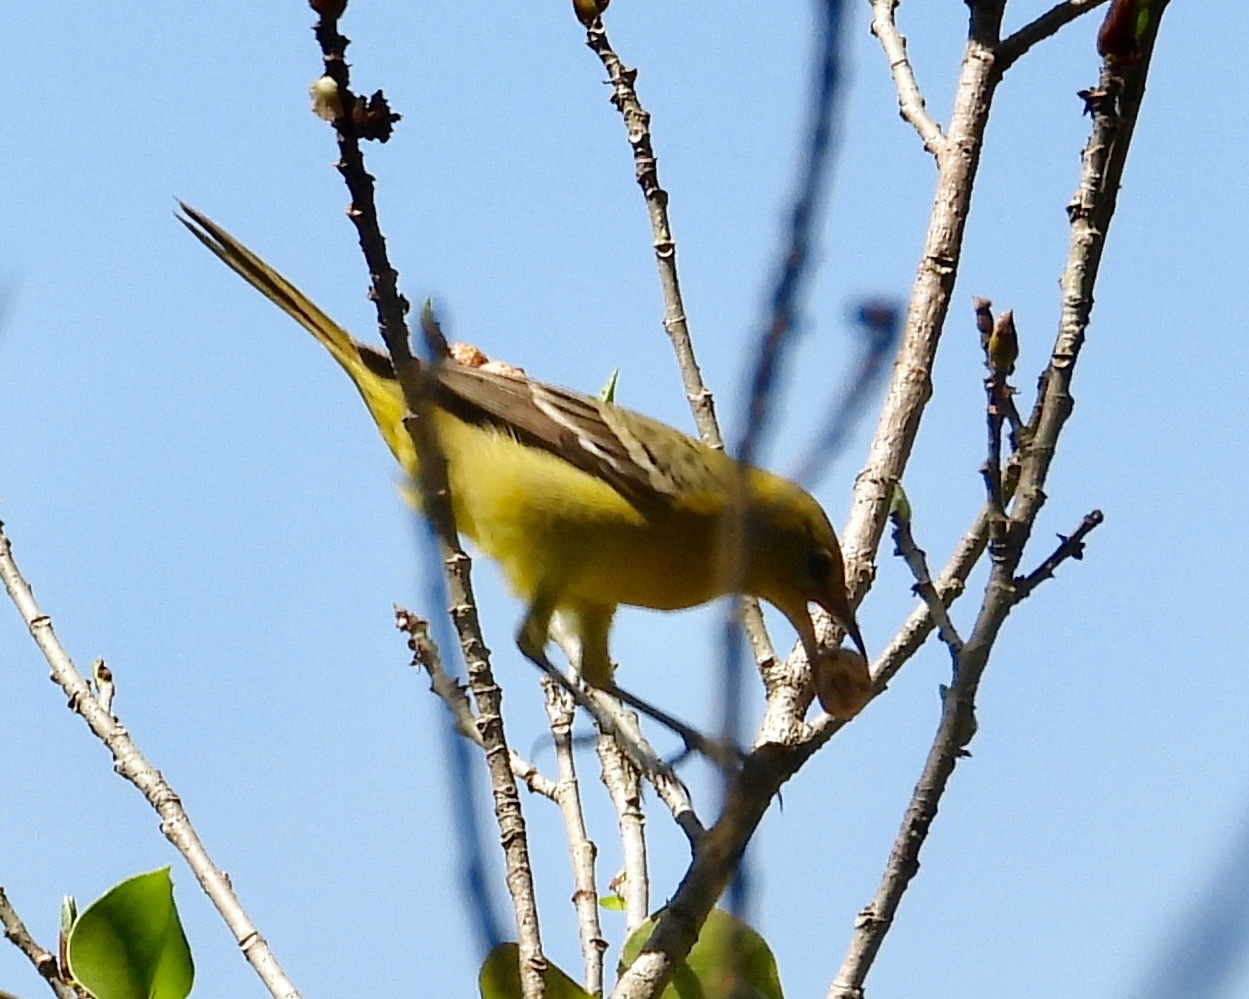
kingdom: Animalia
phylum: Chordata
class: Aves
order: Passeriformes
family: Icteridae
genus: Icterus
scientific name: Icterus spurius
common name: Orchard oriole
